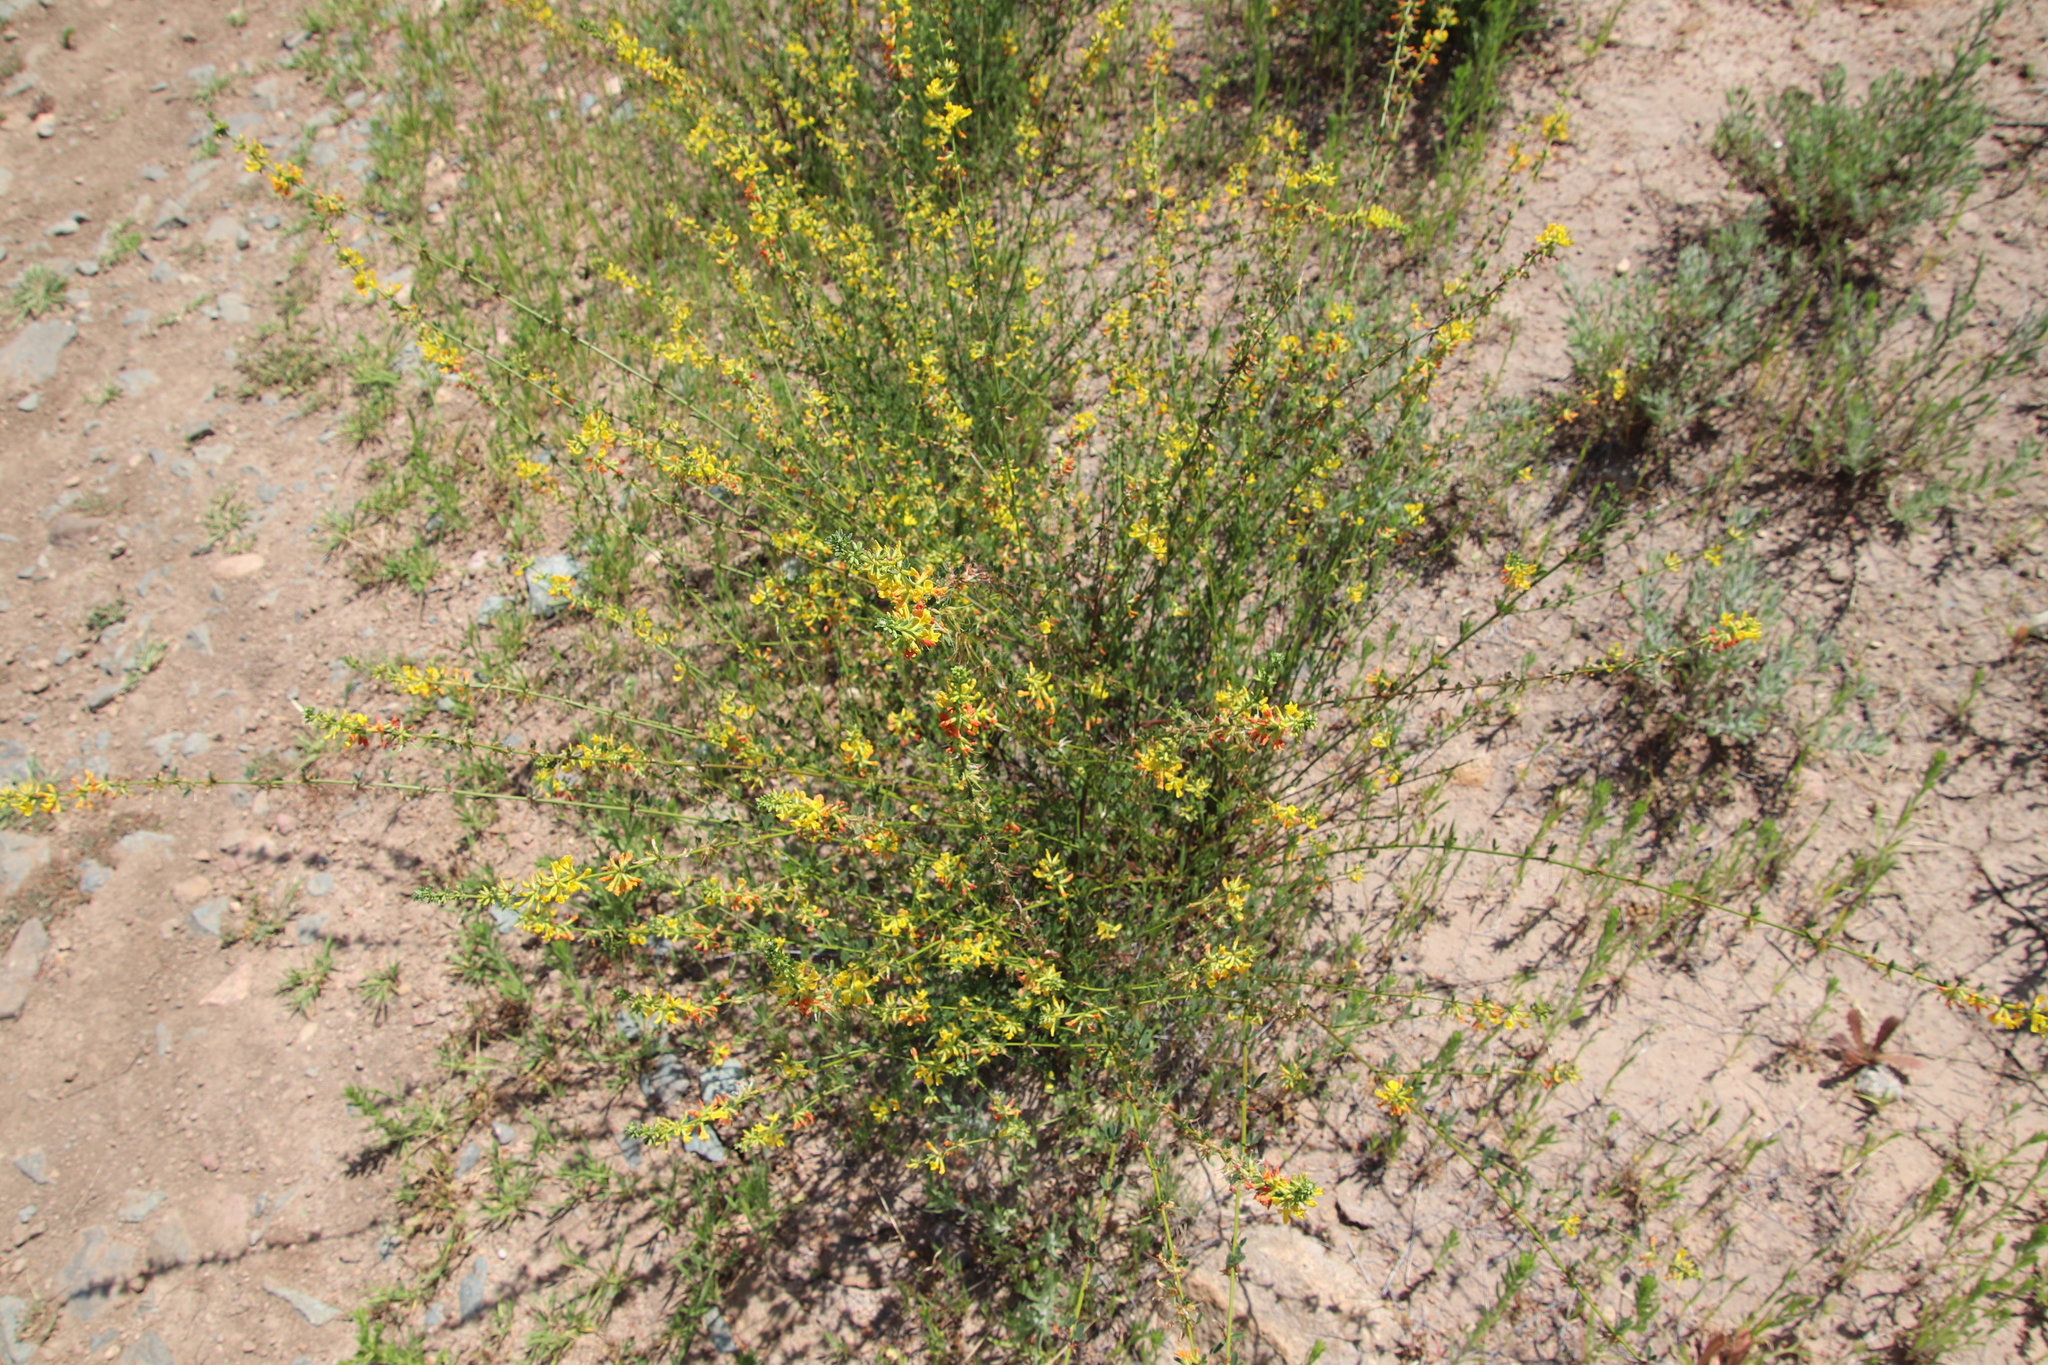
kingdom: Plantae
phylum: Tracheophyta
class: Magnoliopsida
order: Fabales
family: Fabaceae
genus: Acmispon
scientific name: Acmispon glaber
